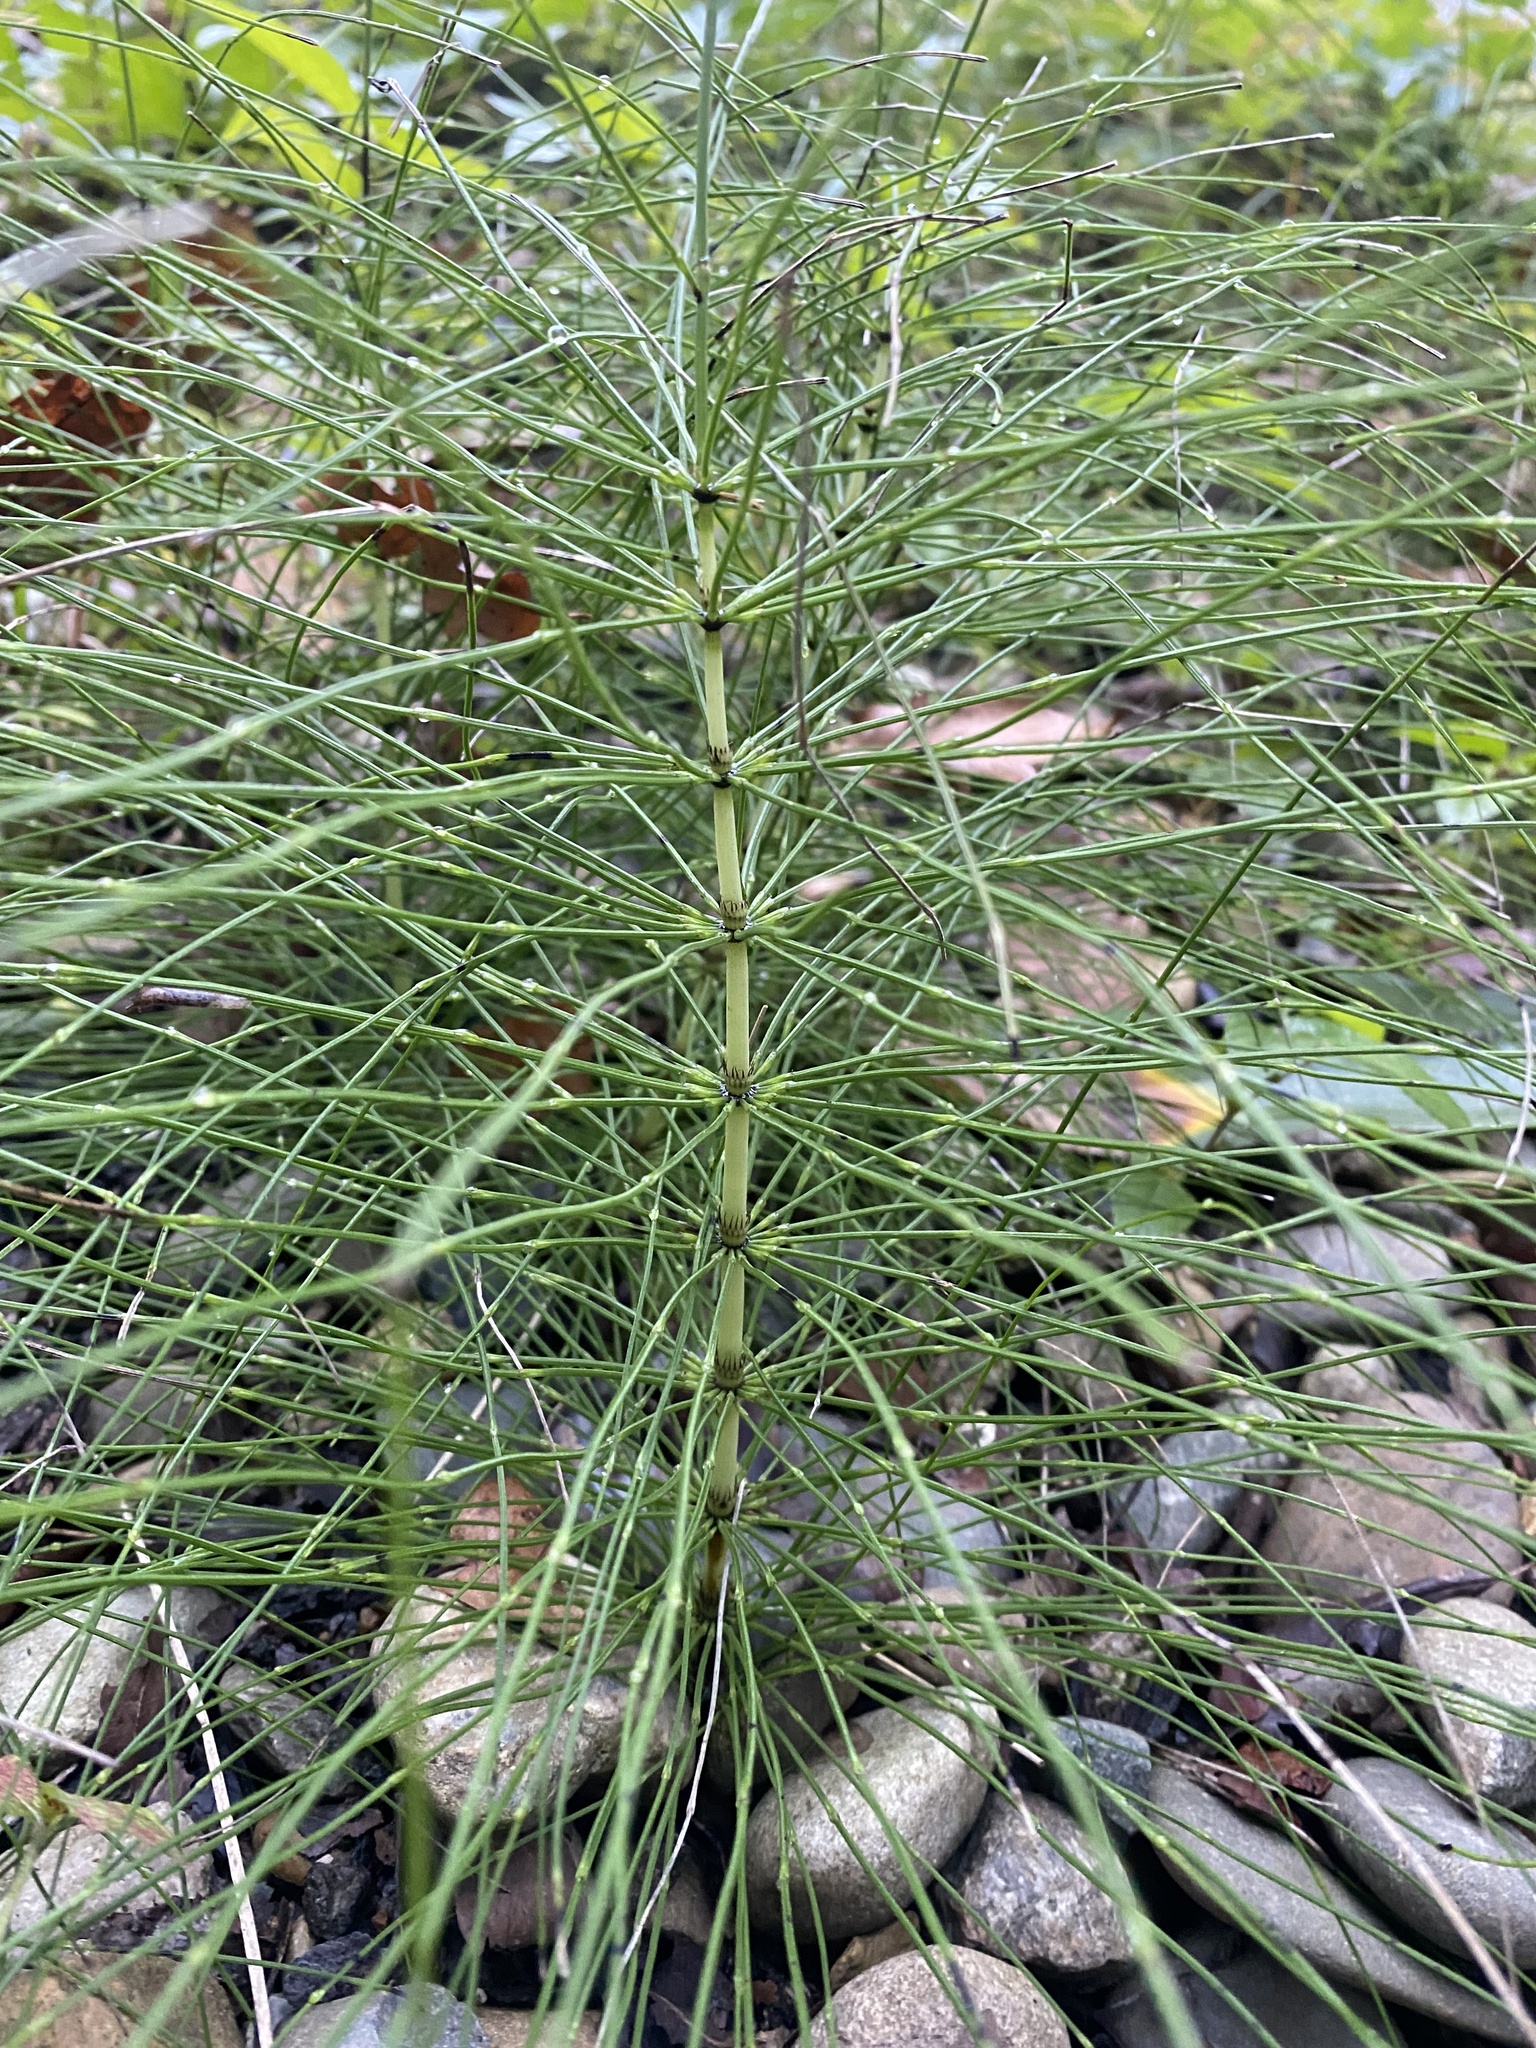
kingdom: Plantae
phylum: Tracheophyta
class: Polypodiopsida
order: Equisetales
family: Equisetaceae
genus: Equisetum
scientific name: Equisetum telmateia
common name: Great horsetail
